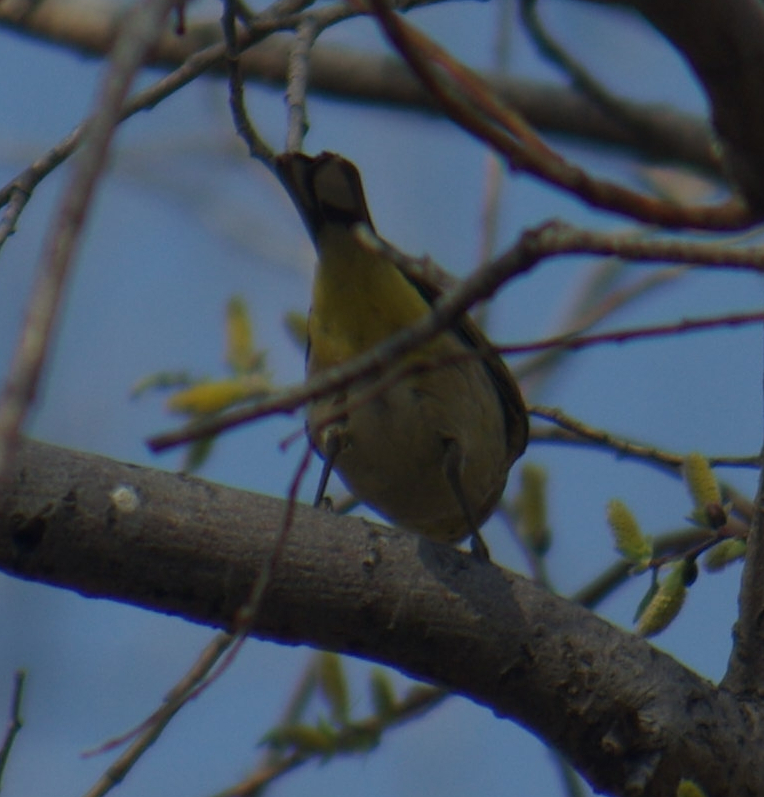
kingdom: Animalia
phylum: Chordata
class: Aves
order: Passeriformes
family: Parulidae
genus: Setophaga
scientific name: Setophaga palmarum
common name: Palm warbler
